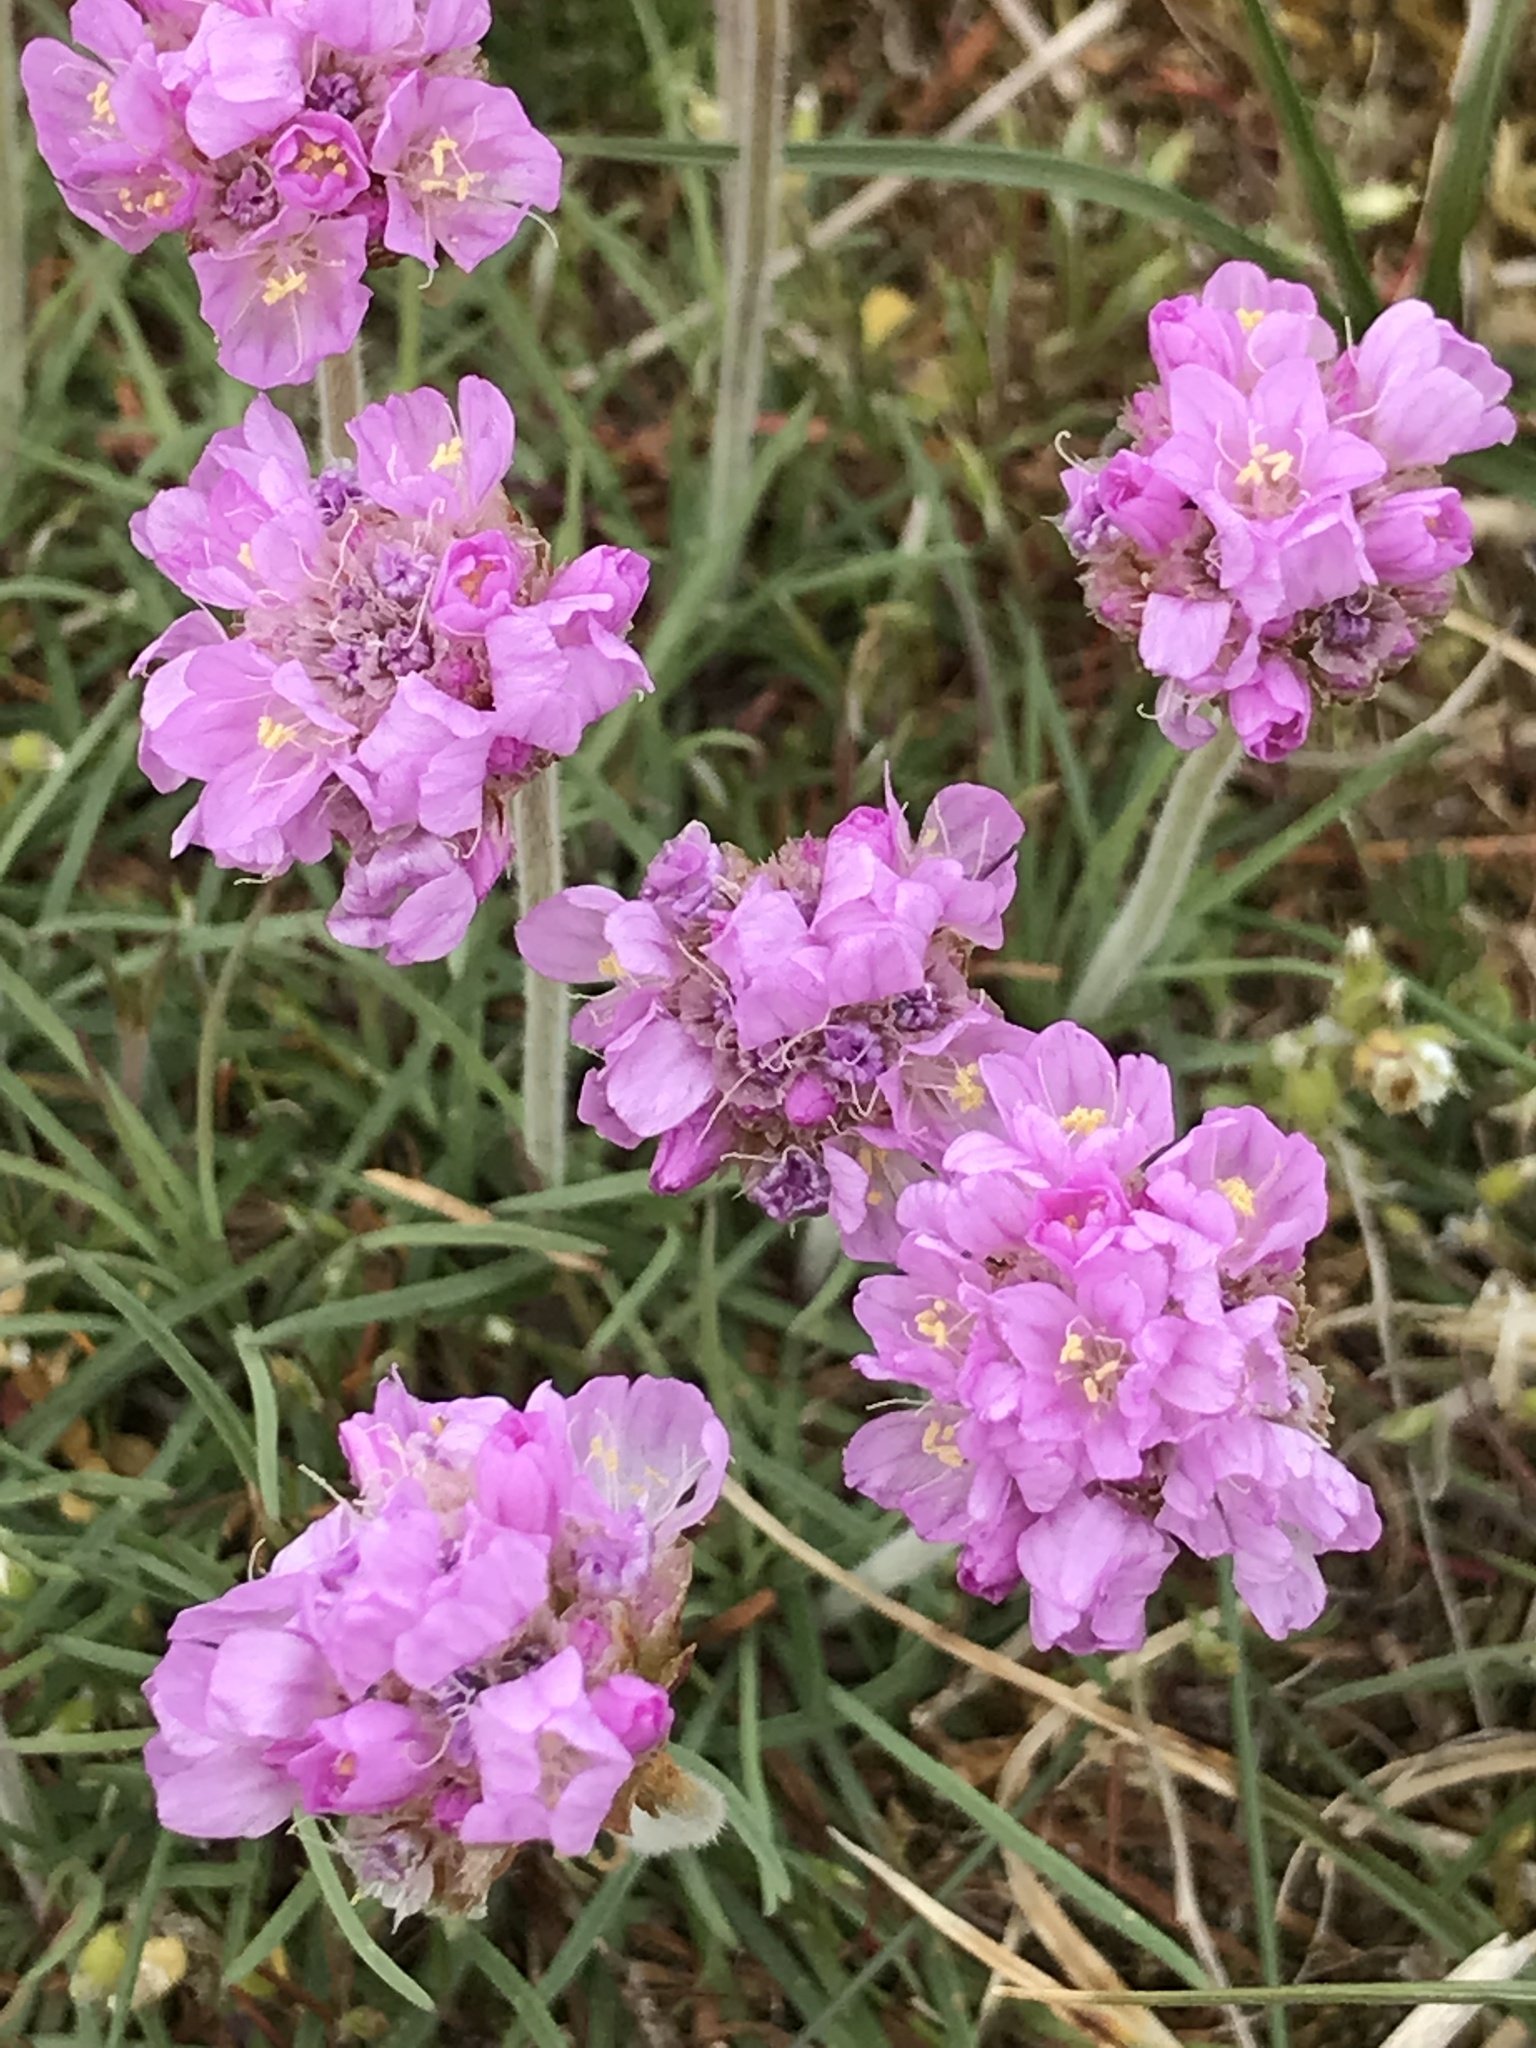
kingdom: Plantae
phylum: Tracheophyta
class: Magnoliopsida
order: Caryophyllales
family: Plumbaginaceae
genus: Armeria
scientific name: Armeria maritima
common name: Thrift
